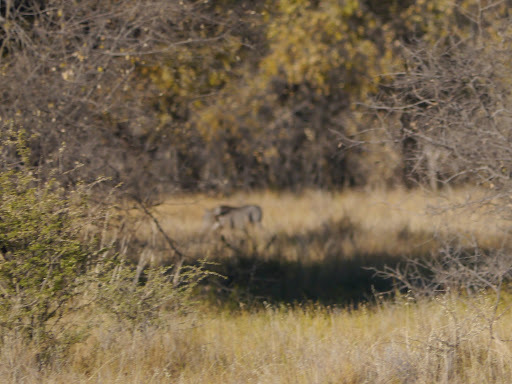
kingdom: Animalia
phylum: Chordata
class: Mammalia
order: Artiodactyla
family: Suidae
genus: Phacochoerus
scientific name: Phacochoerus africanus
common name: Common warthog
